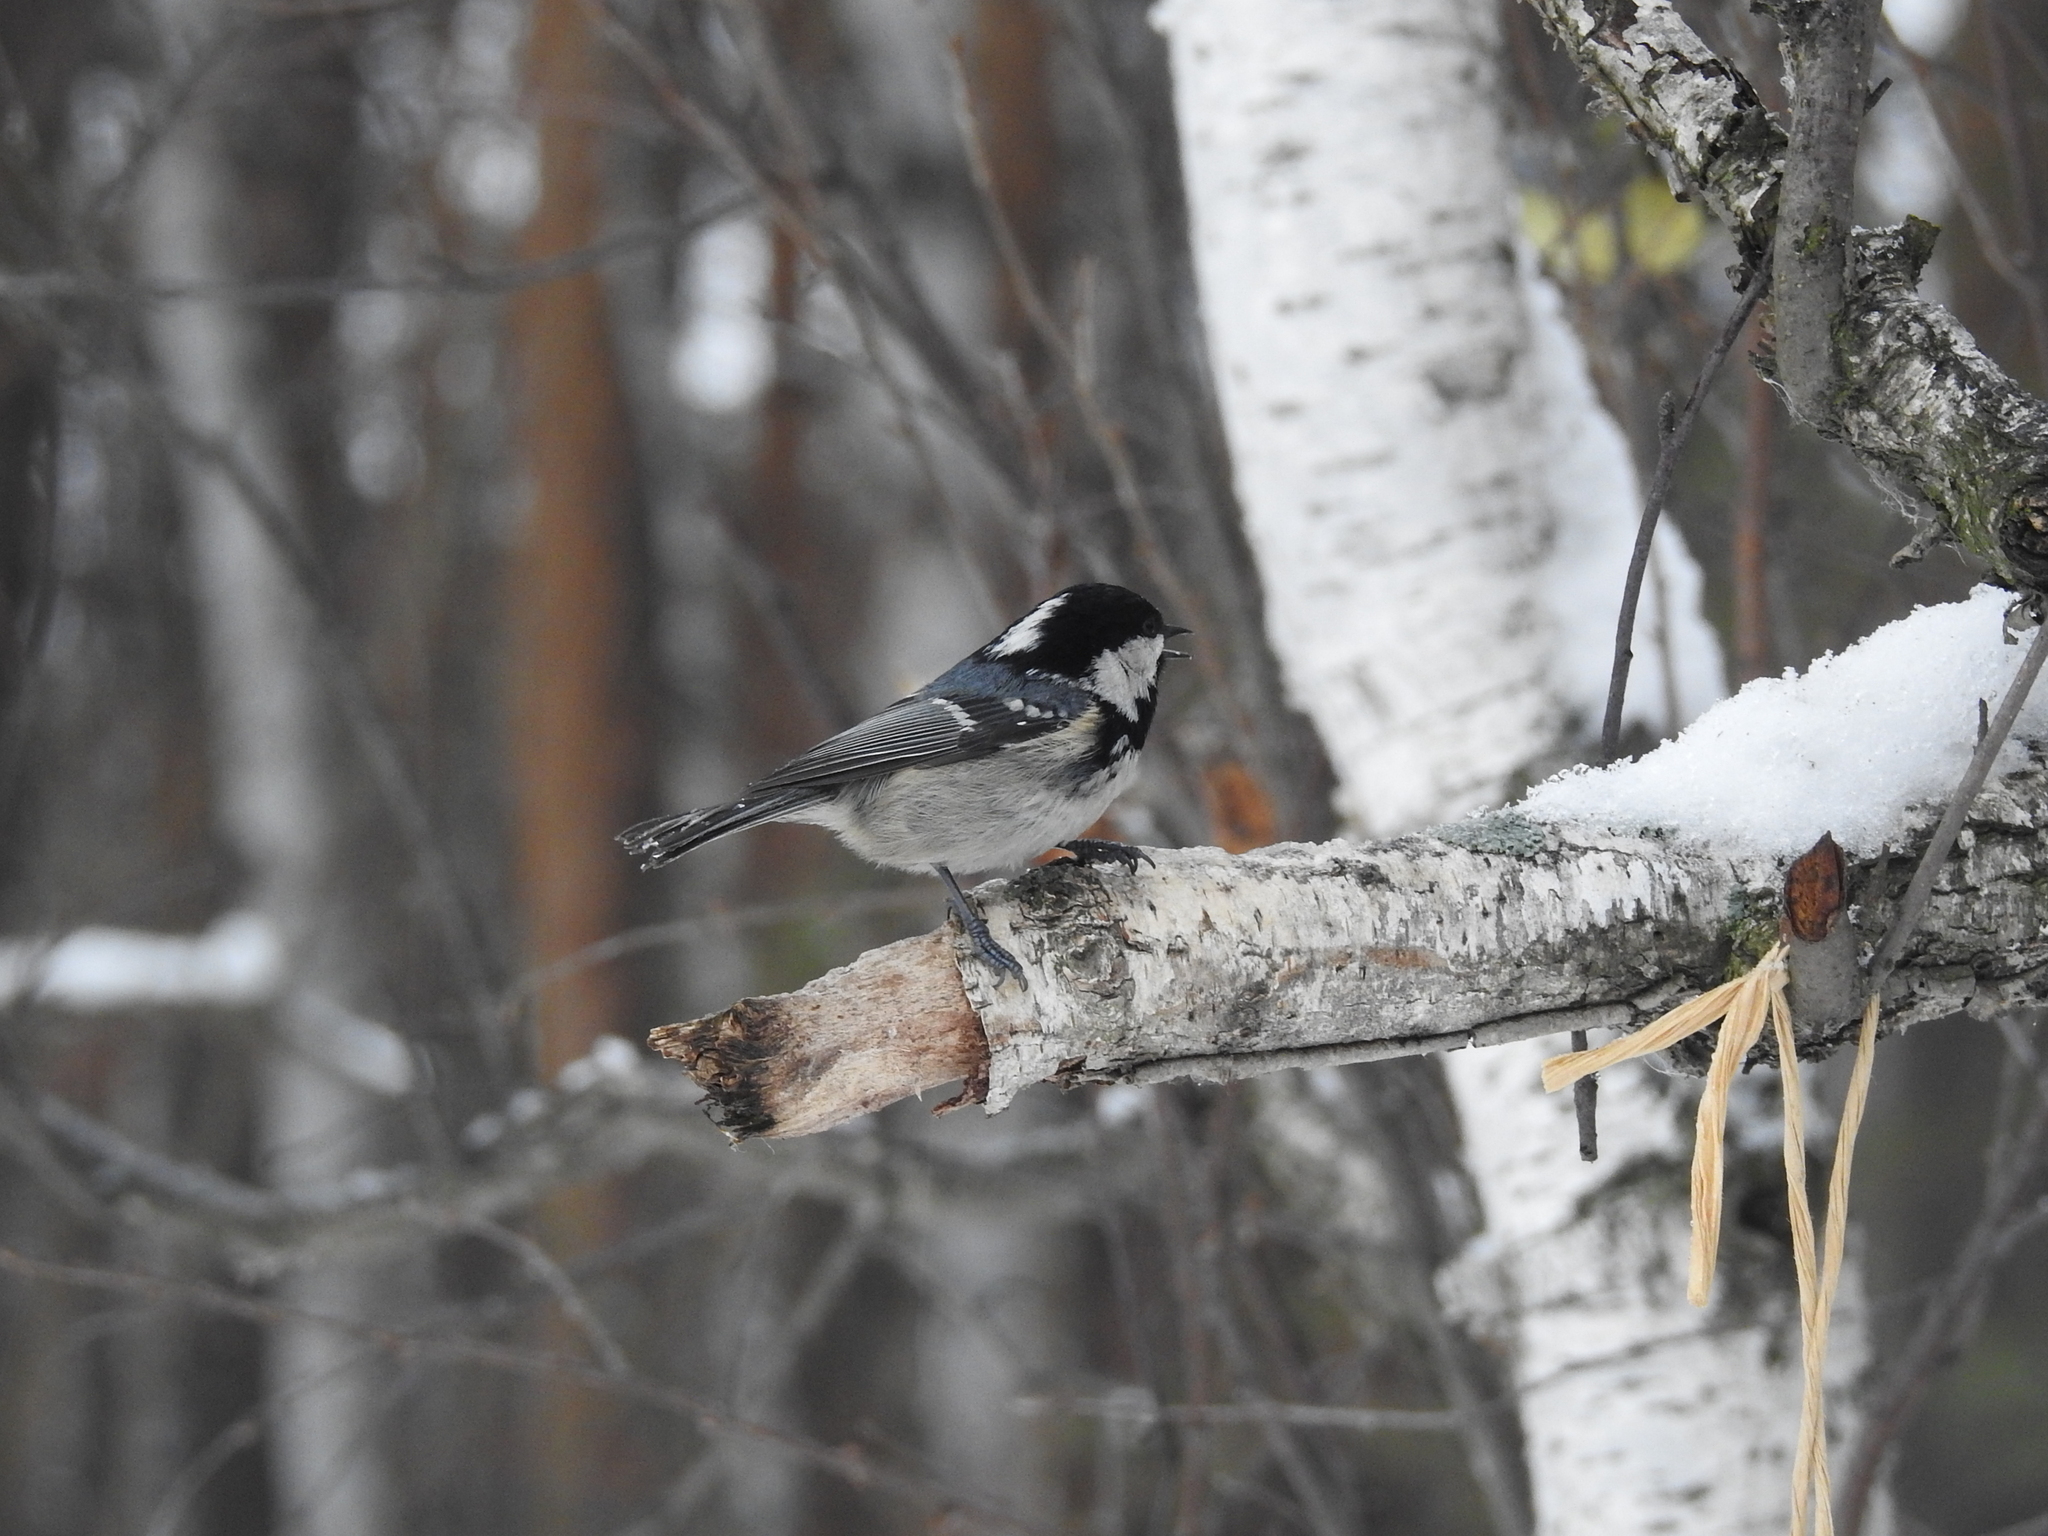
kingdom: Animalia
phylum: Chordata
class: Aves
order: Passeriformes
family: Paridae
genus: Periparus
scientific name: Periparus ater
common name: Coal tit
